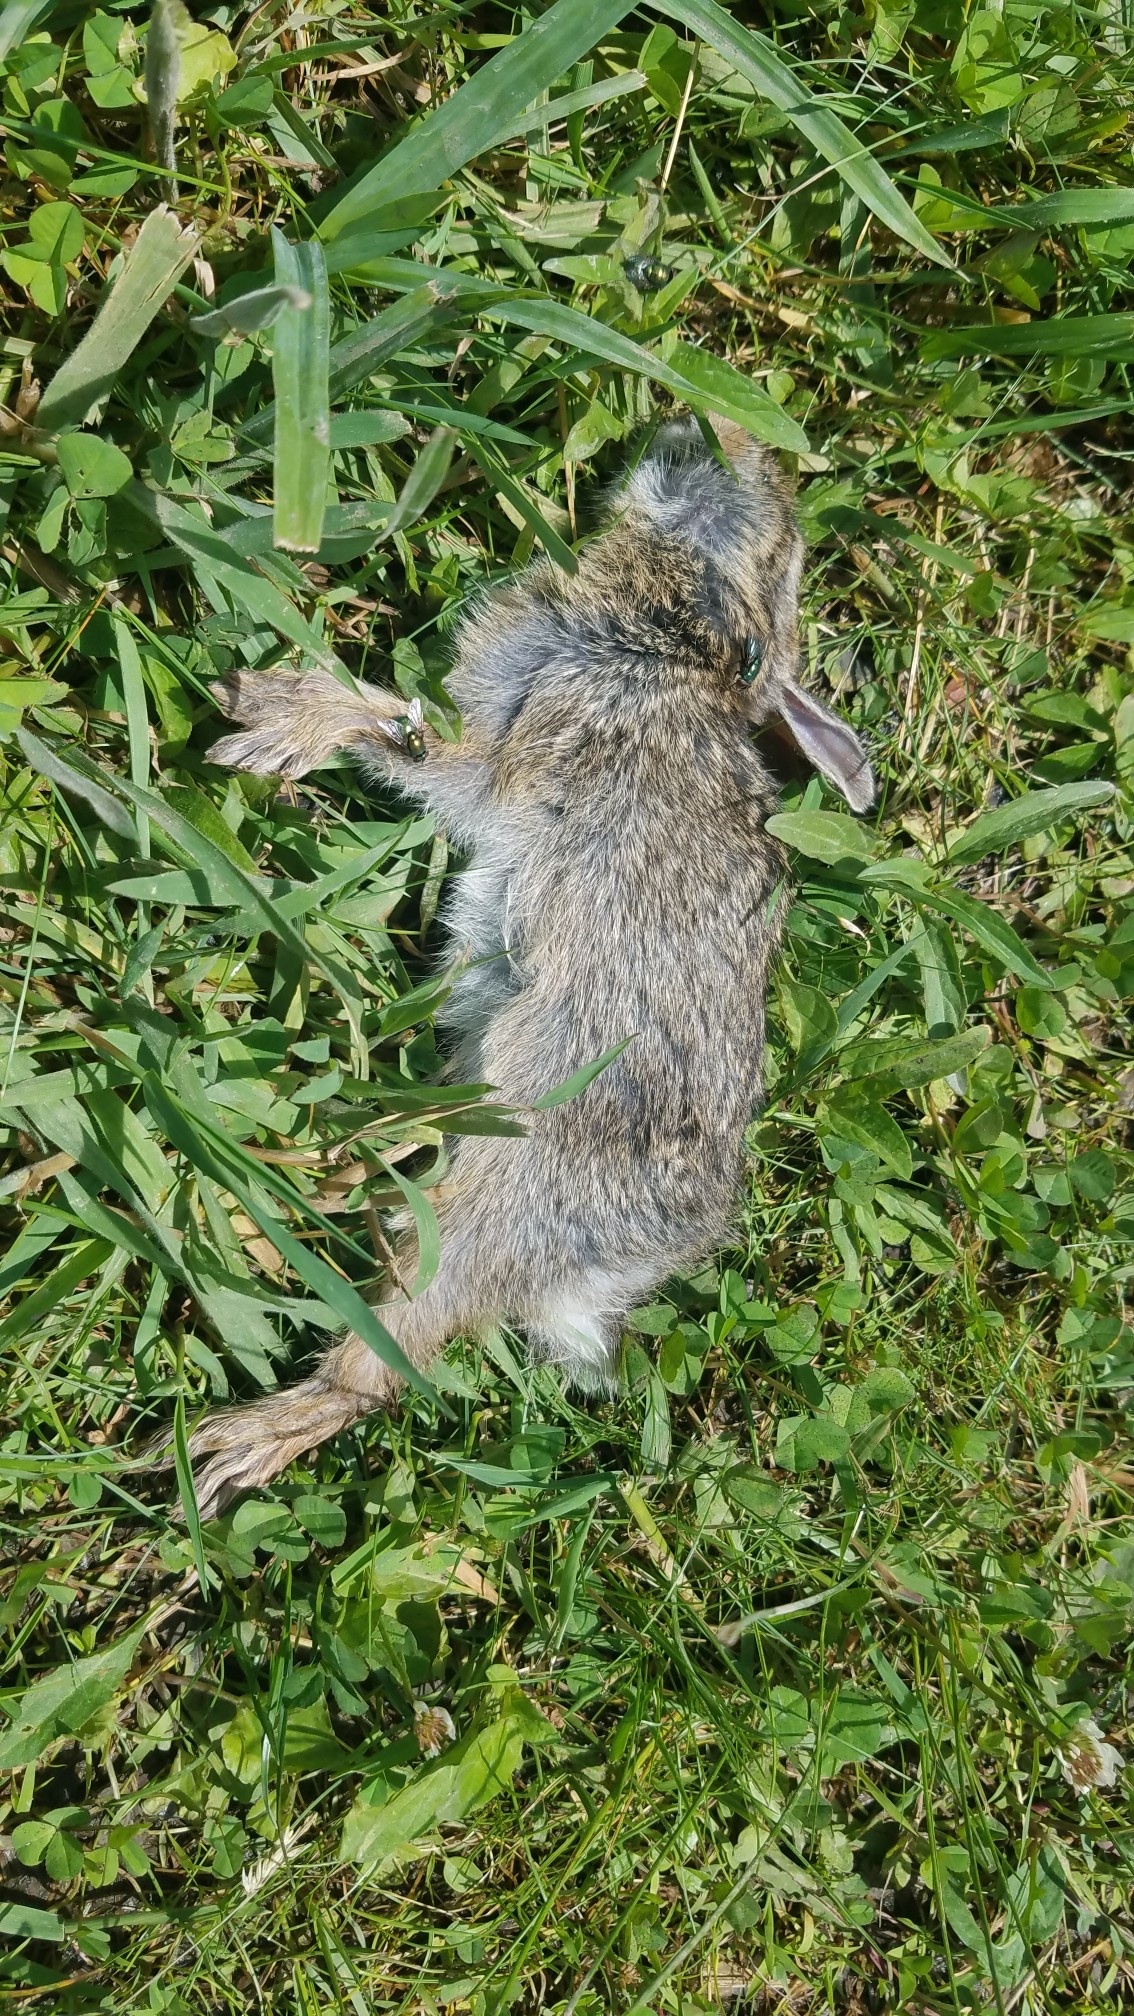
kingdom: Animalia
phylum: Chordata
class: Mammalia
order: Lagomorpha
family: Leporidae
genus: Sylvilagus
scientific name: Sylvilagus floridanus
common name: Eastern cottontail
